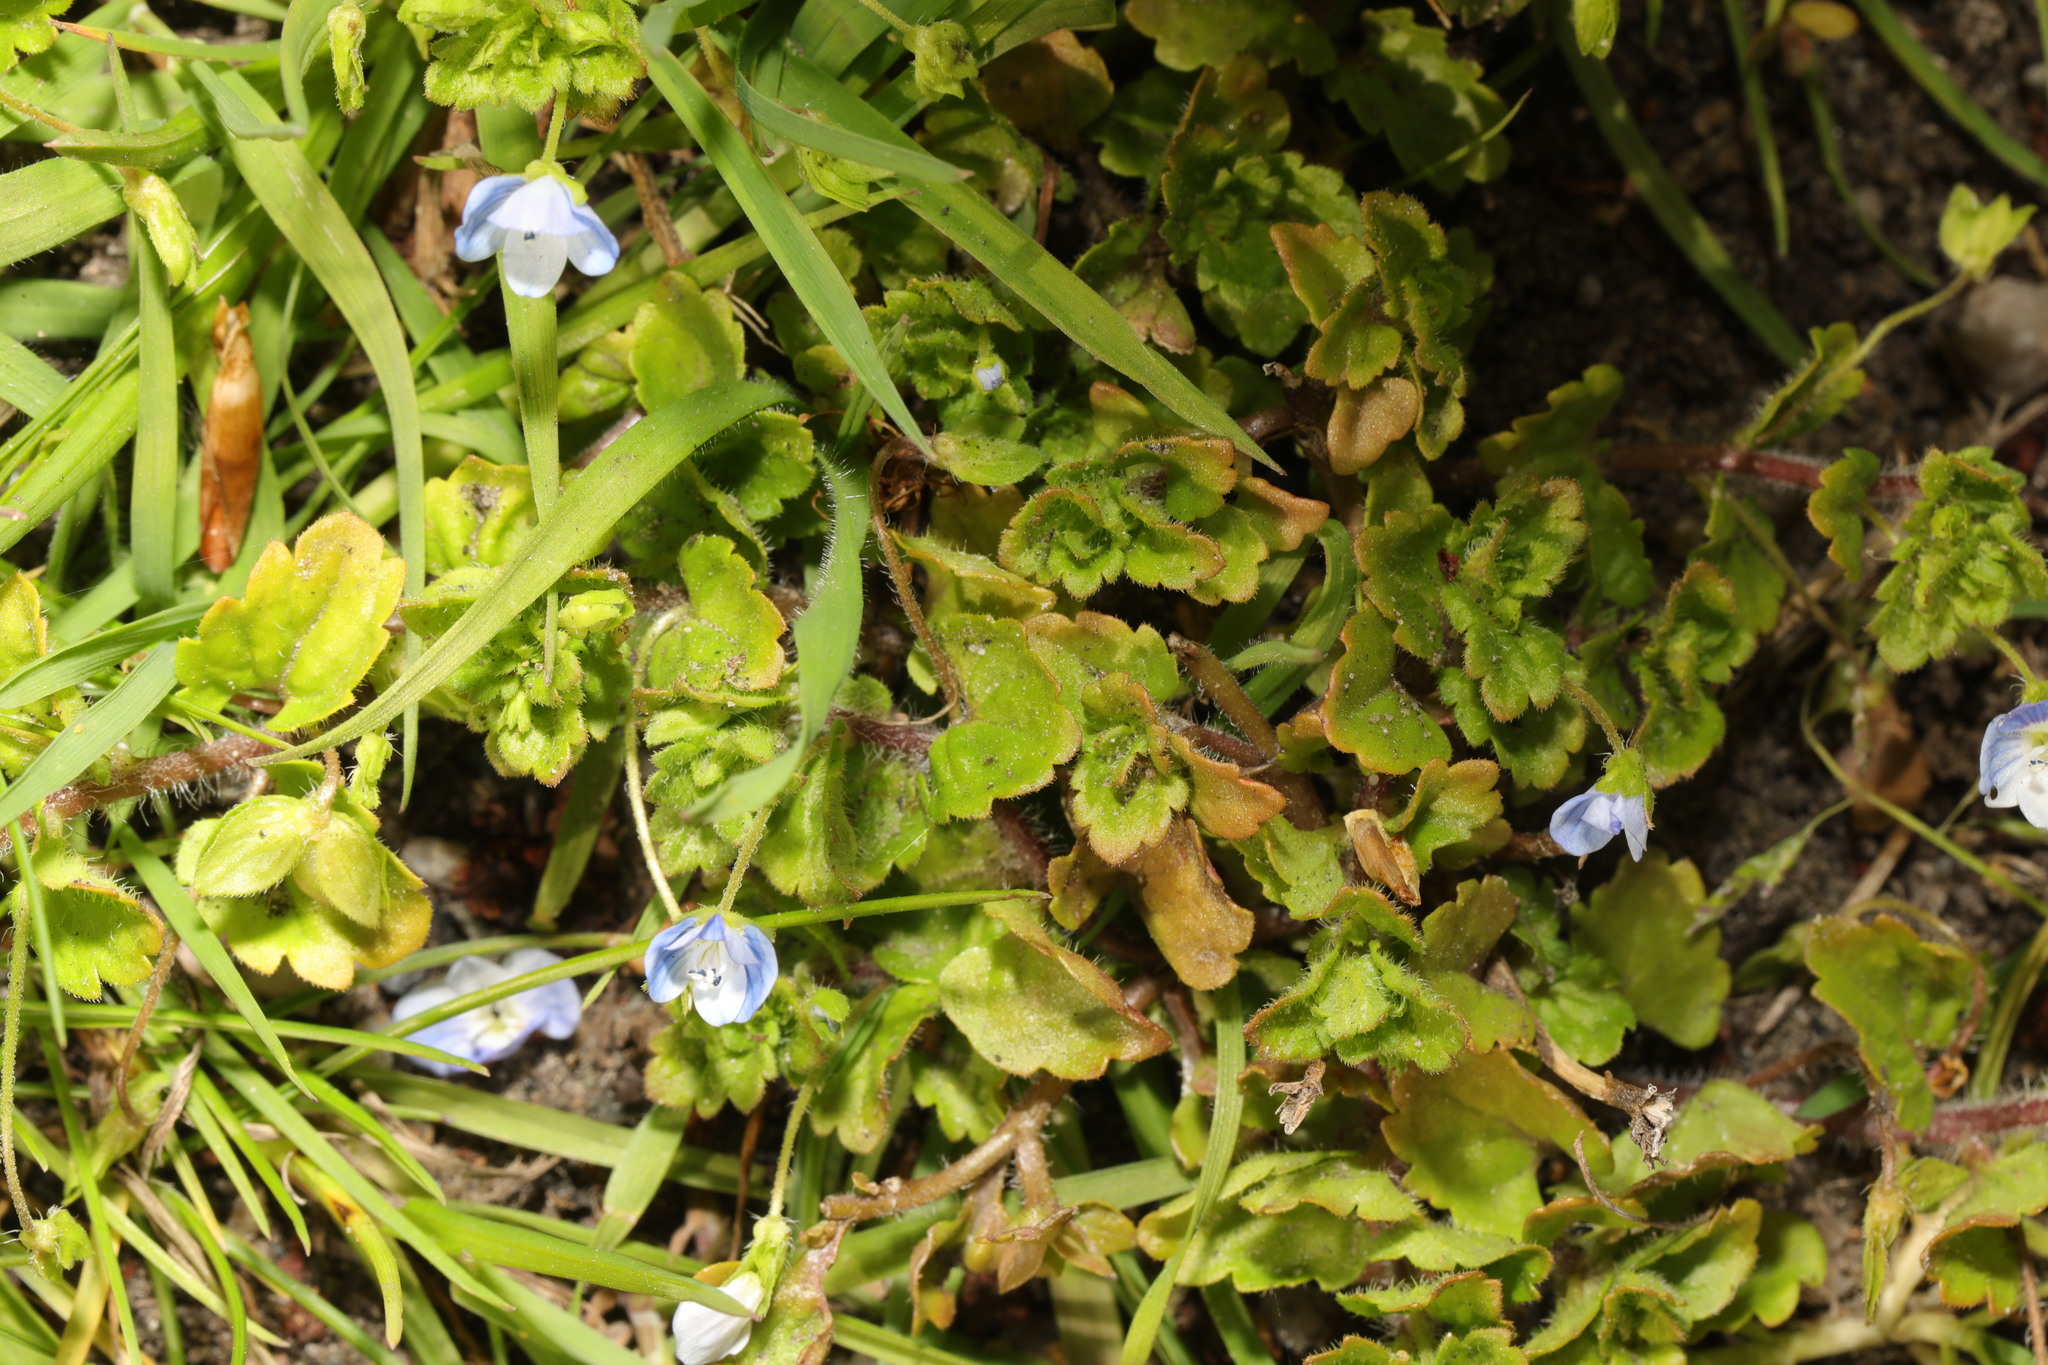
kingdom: Plantae
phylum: Tracheophyta
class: Magnoliopsida
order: Lamiales
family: Plantaginaceae
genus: Veronica
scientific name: Veronica persica
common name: Common field-speedwell
